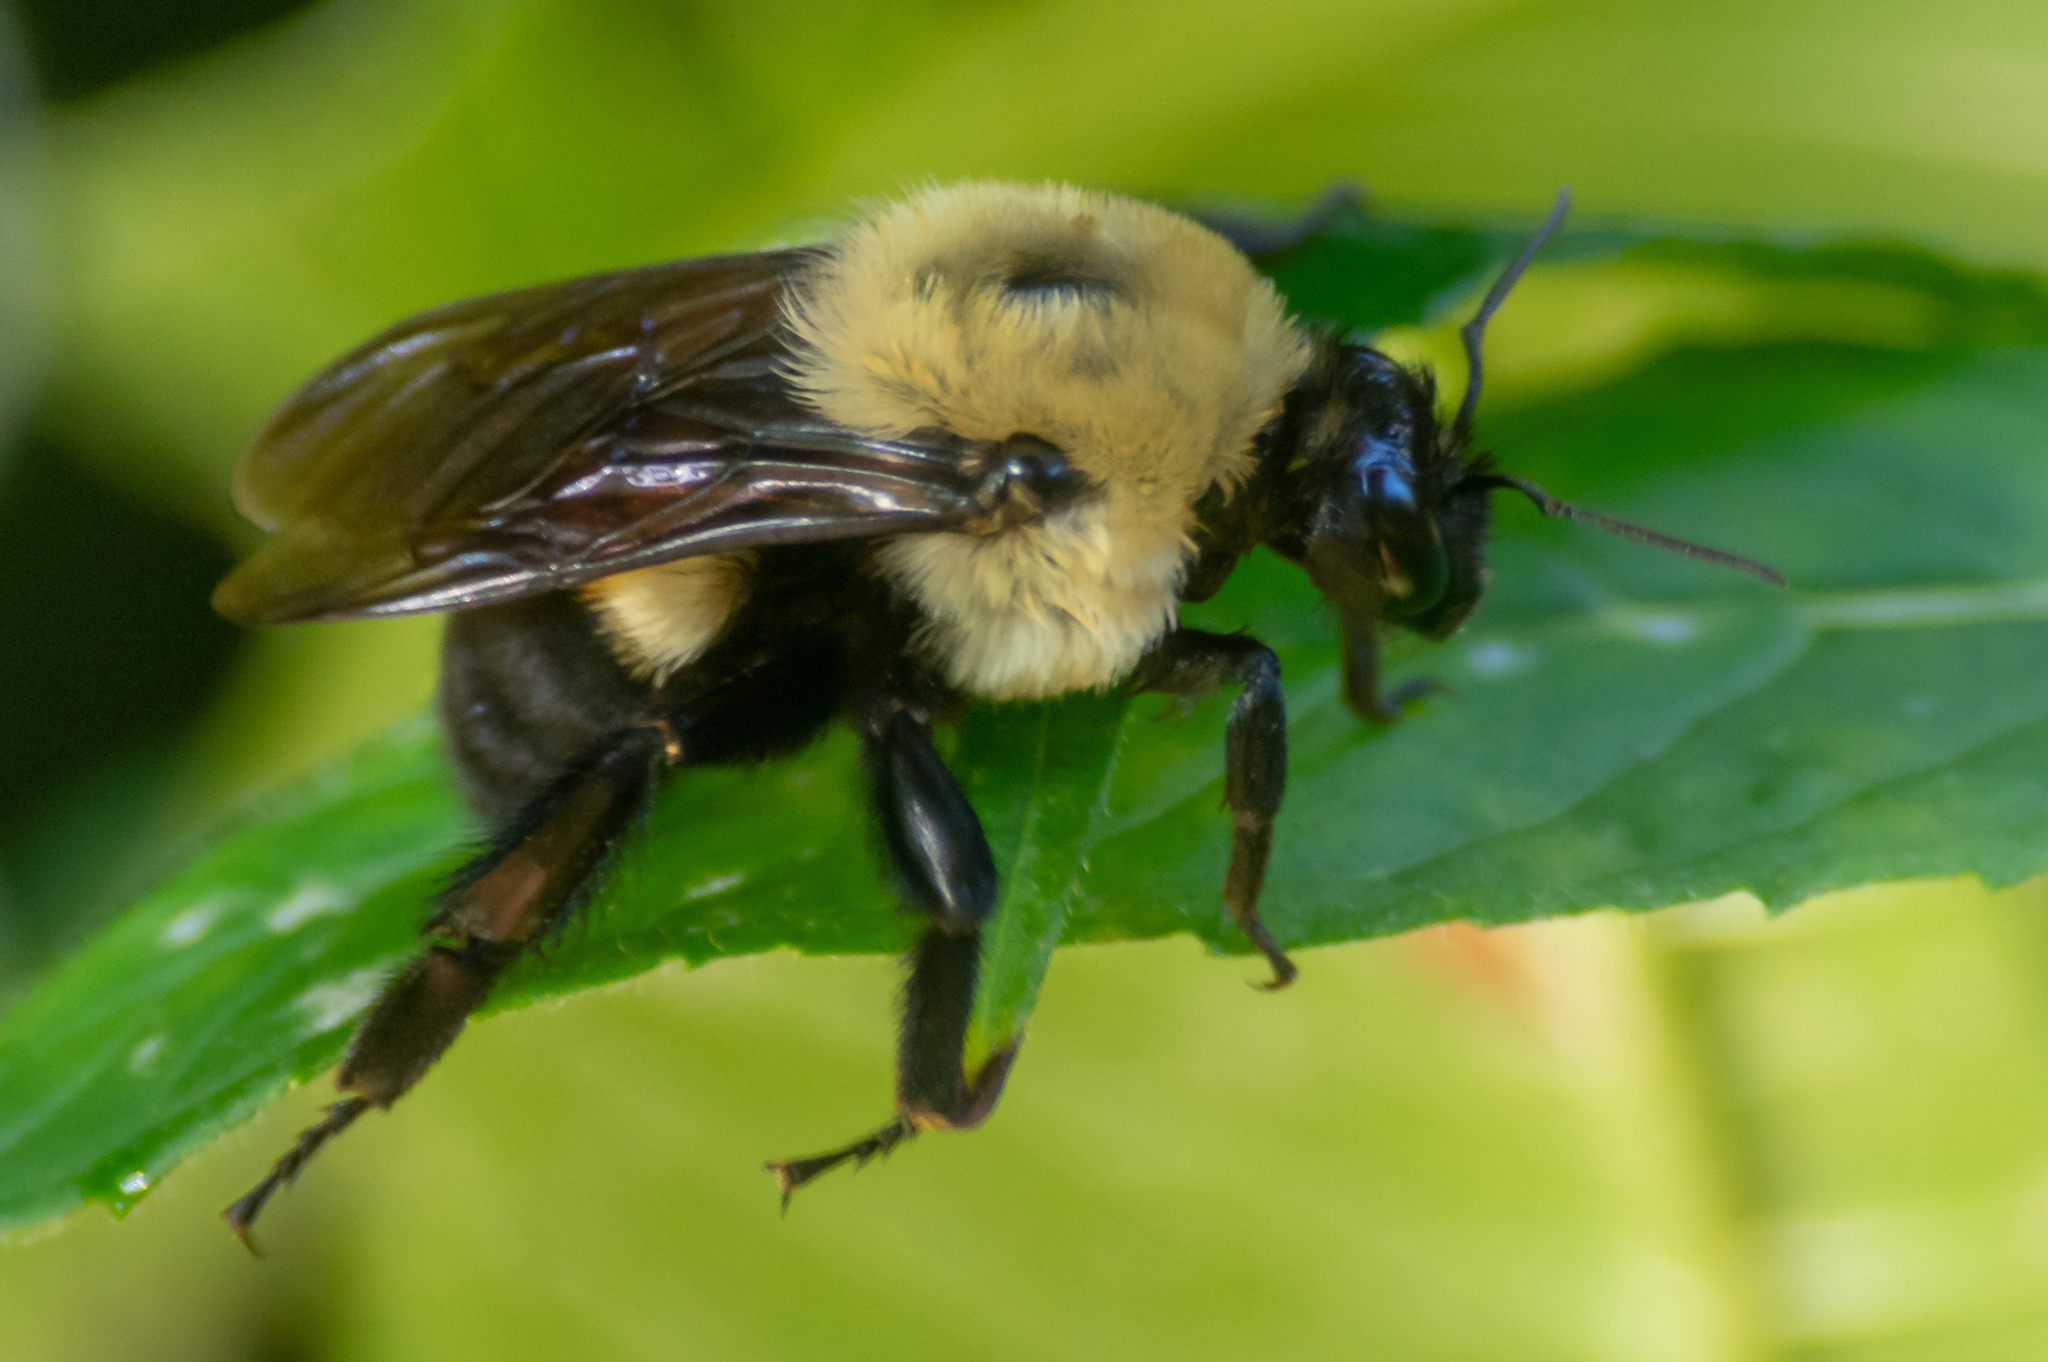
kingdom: Animalia
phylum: Arthropoda
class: Insecta
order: Hymenoptera
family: Apidae
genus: Bombus
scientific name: Bombus griseocollis
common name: Brown-belted bumble bee
